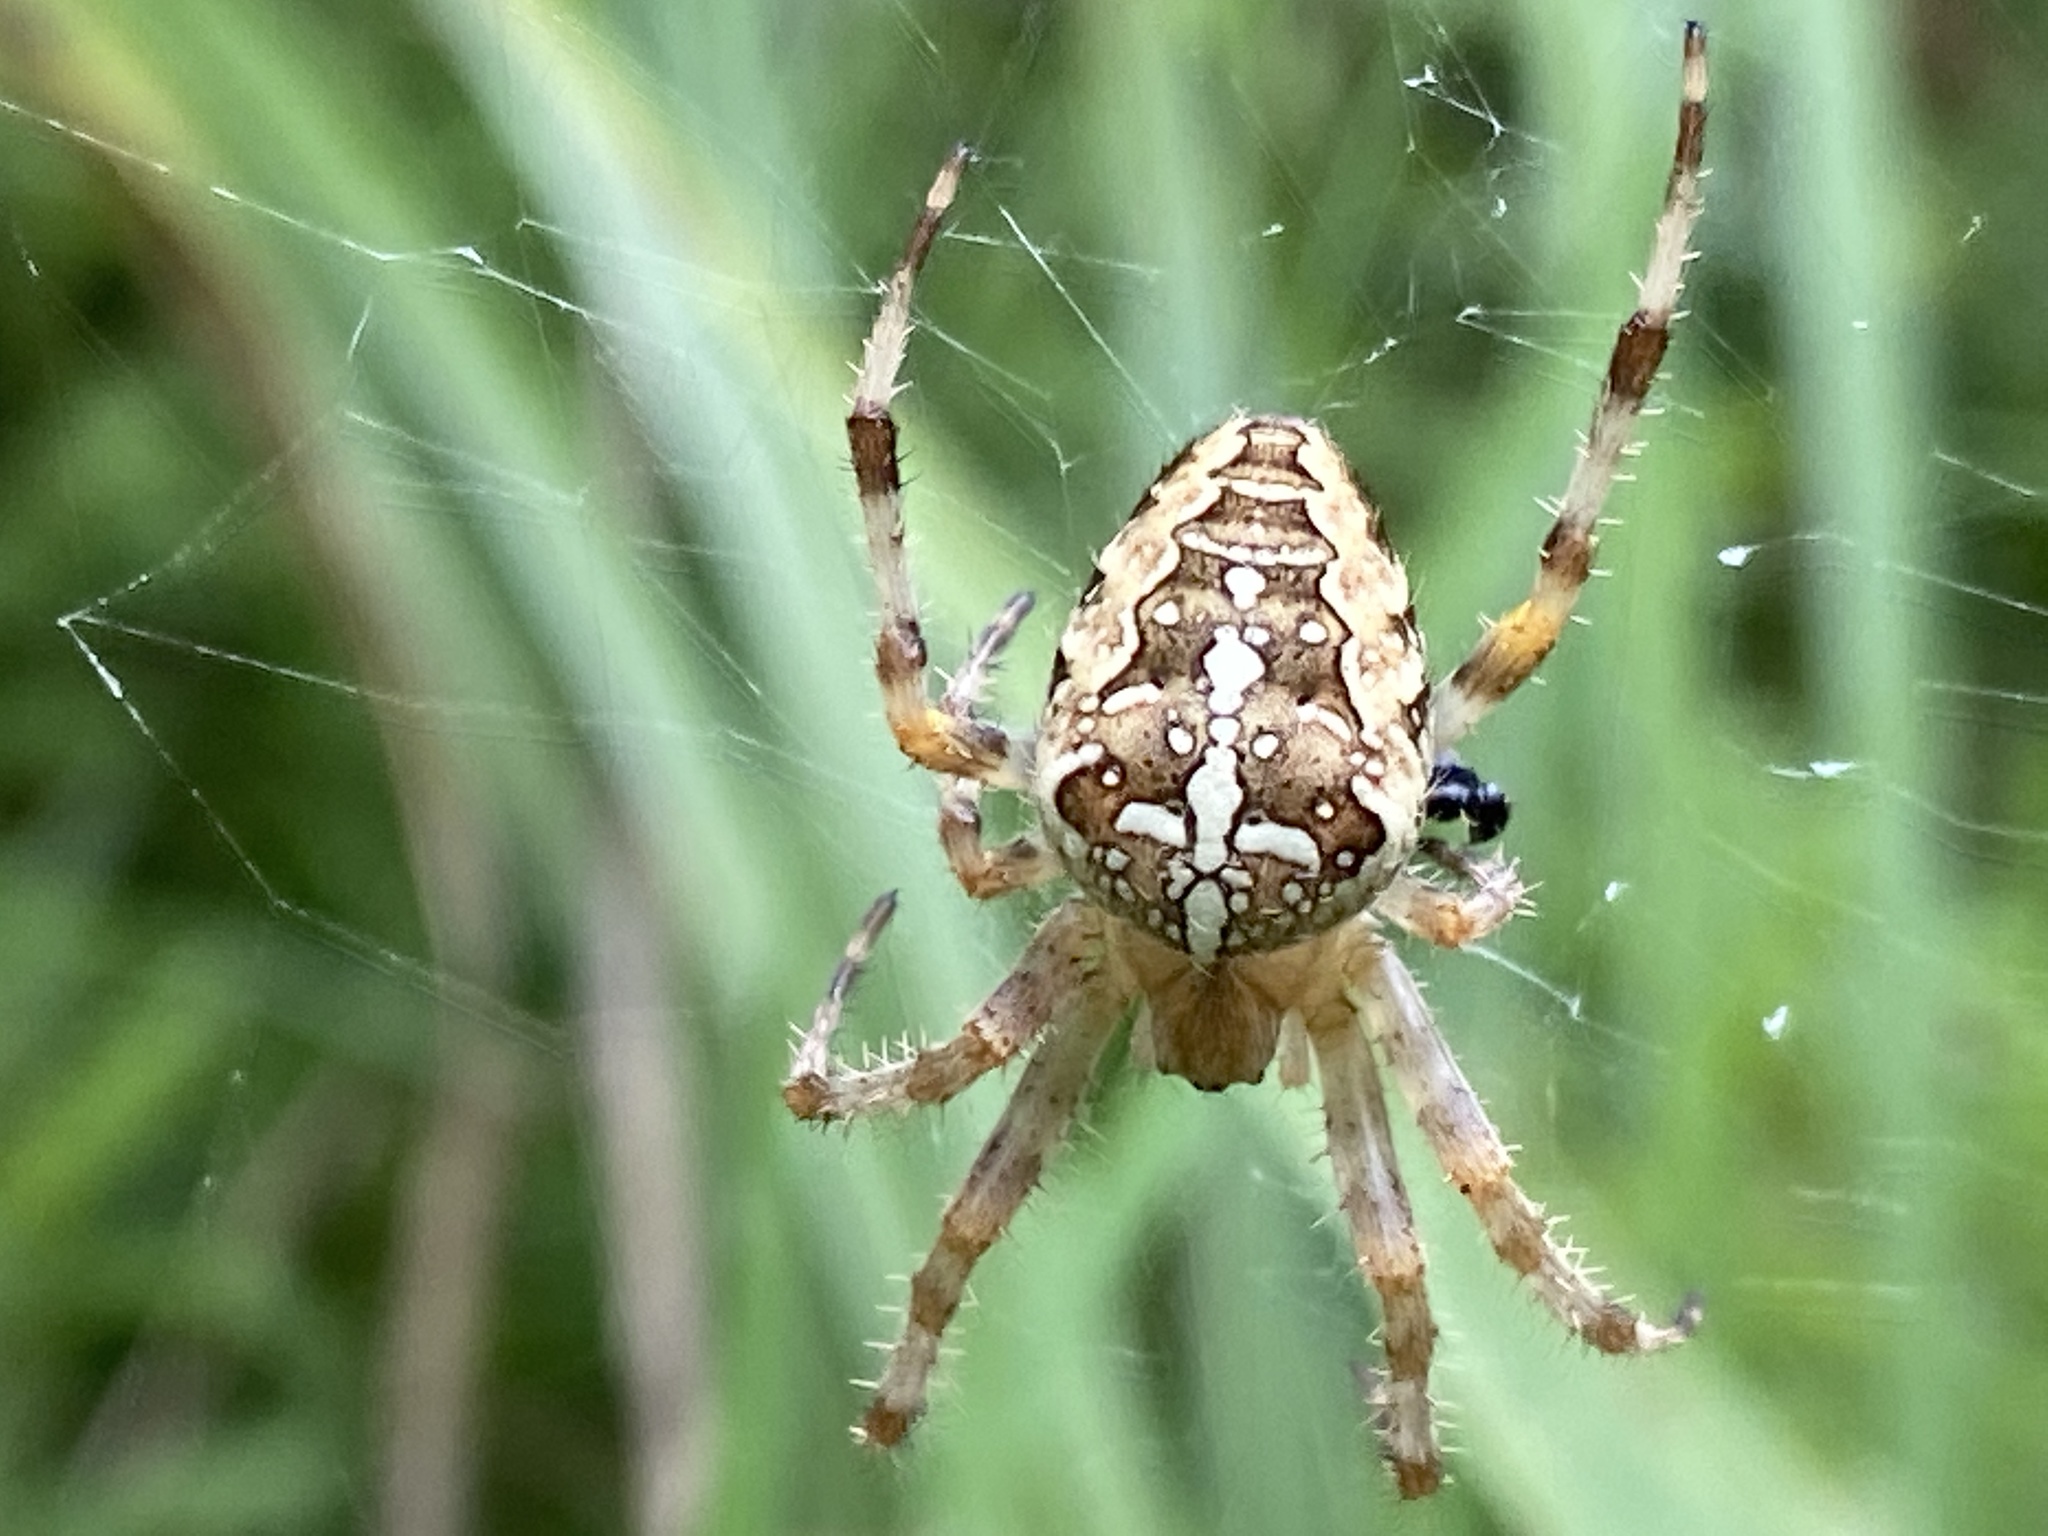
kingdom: Animalia
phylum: Arthropoda
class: Arachnida
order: Araneae
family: Araneidae
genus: Araneus
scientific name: Araneus diadematus
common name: Cross orbweaver
